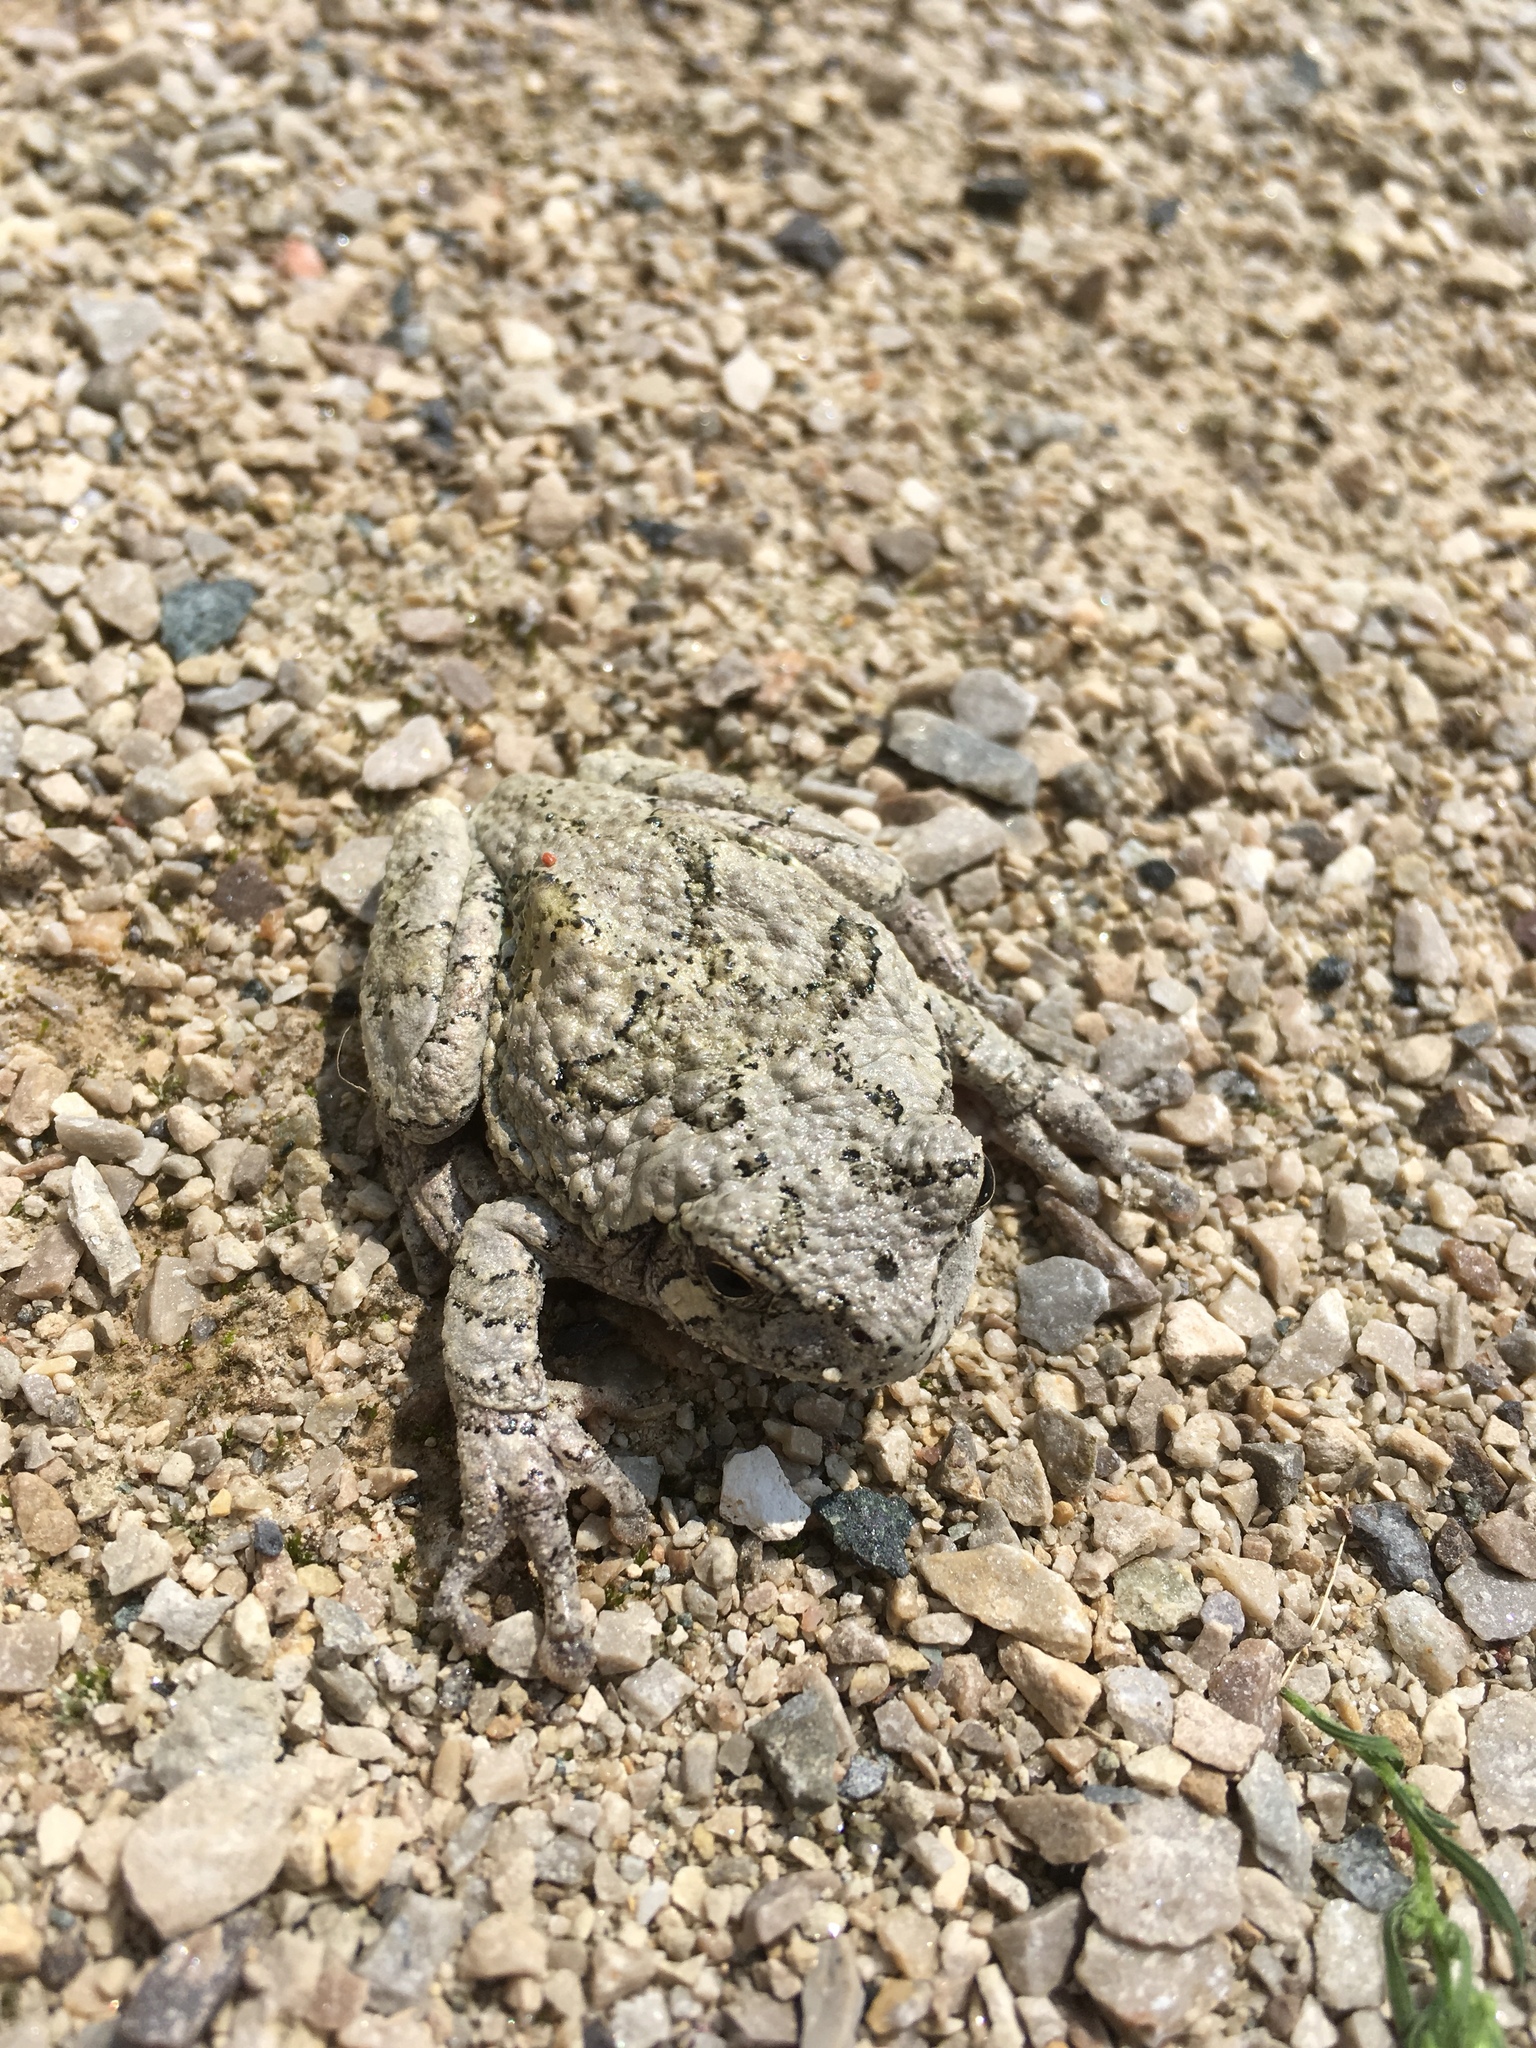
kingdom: Animalia
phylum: Chordata
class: Amphibia
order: Anura
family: Hylidae
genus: Dryophytes
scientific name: Dryophytes versicolor
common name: Gray treefrog
